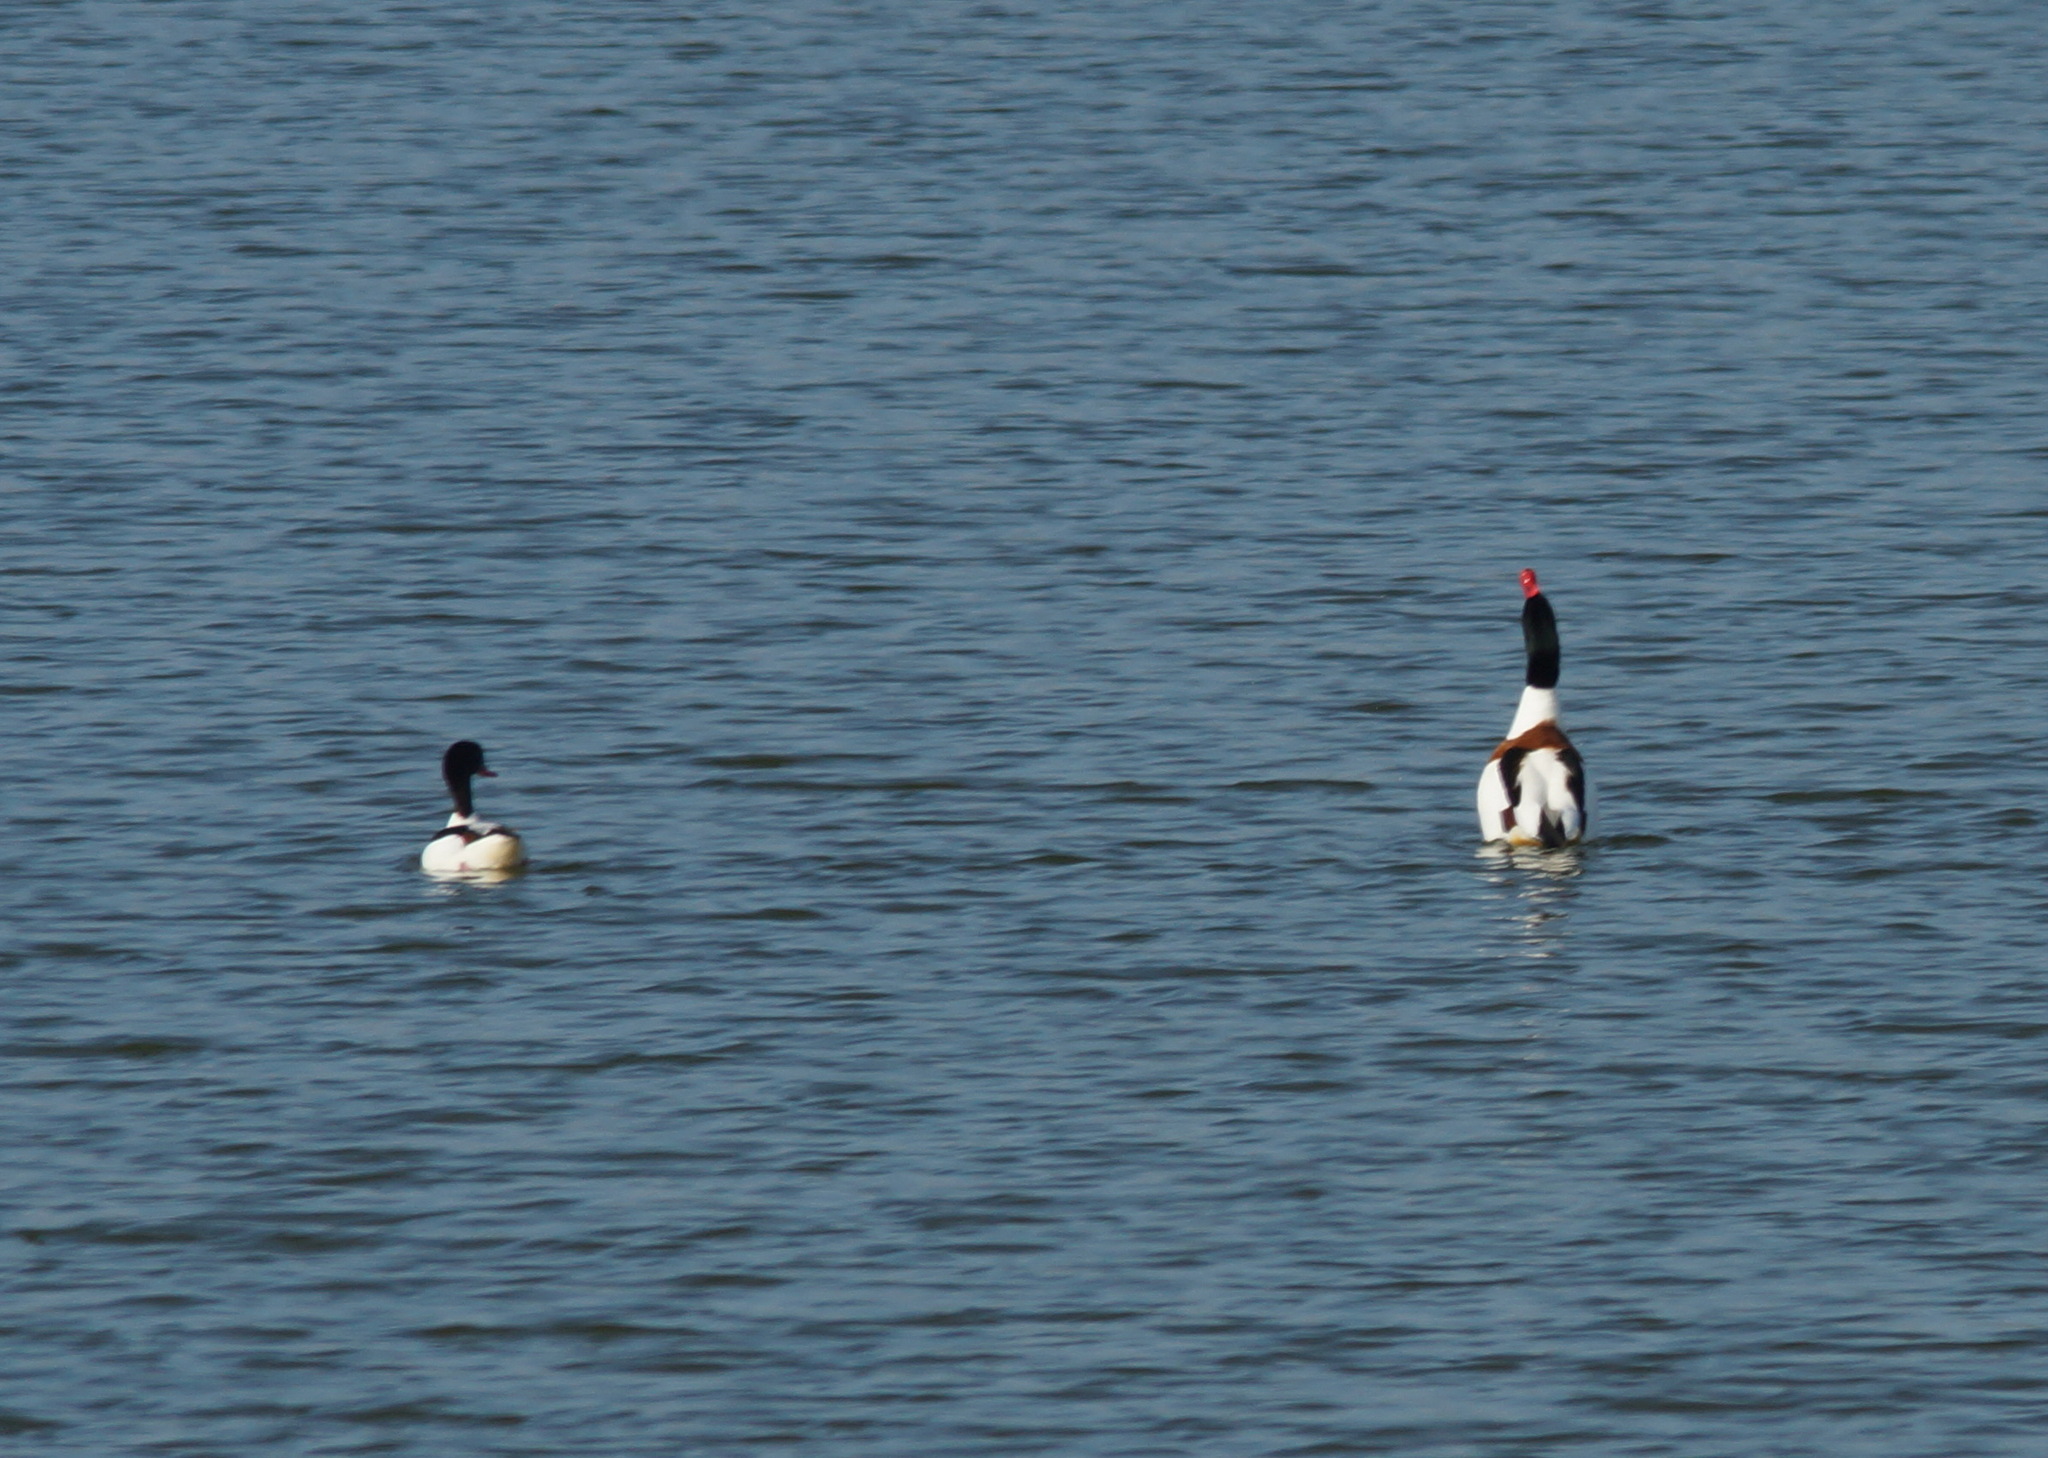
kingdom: Animalia
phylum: Chordata
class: Aves
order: Anseriformes
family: Anatidae
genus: Tadorna
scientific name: Tadorna tadorna
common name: Common shelduck
